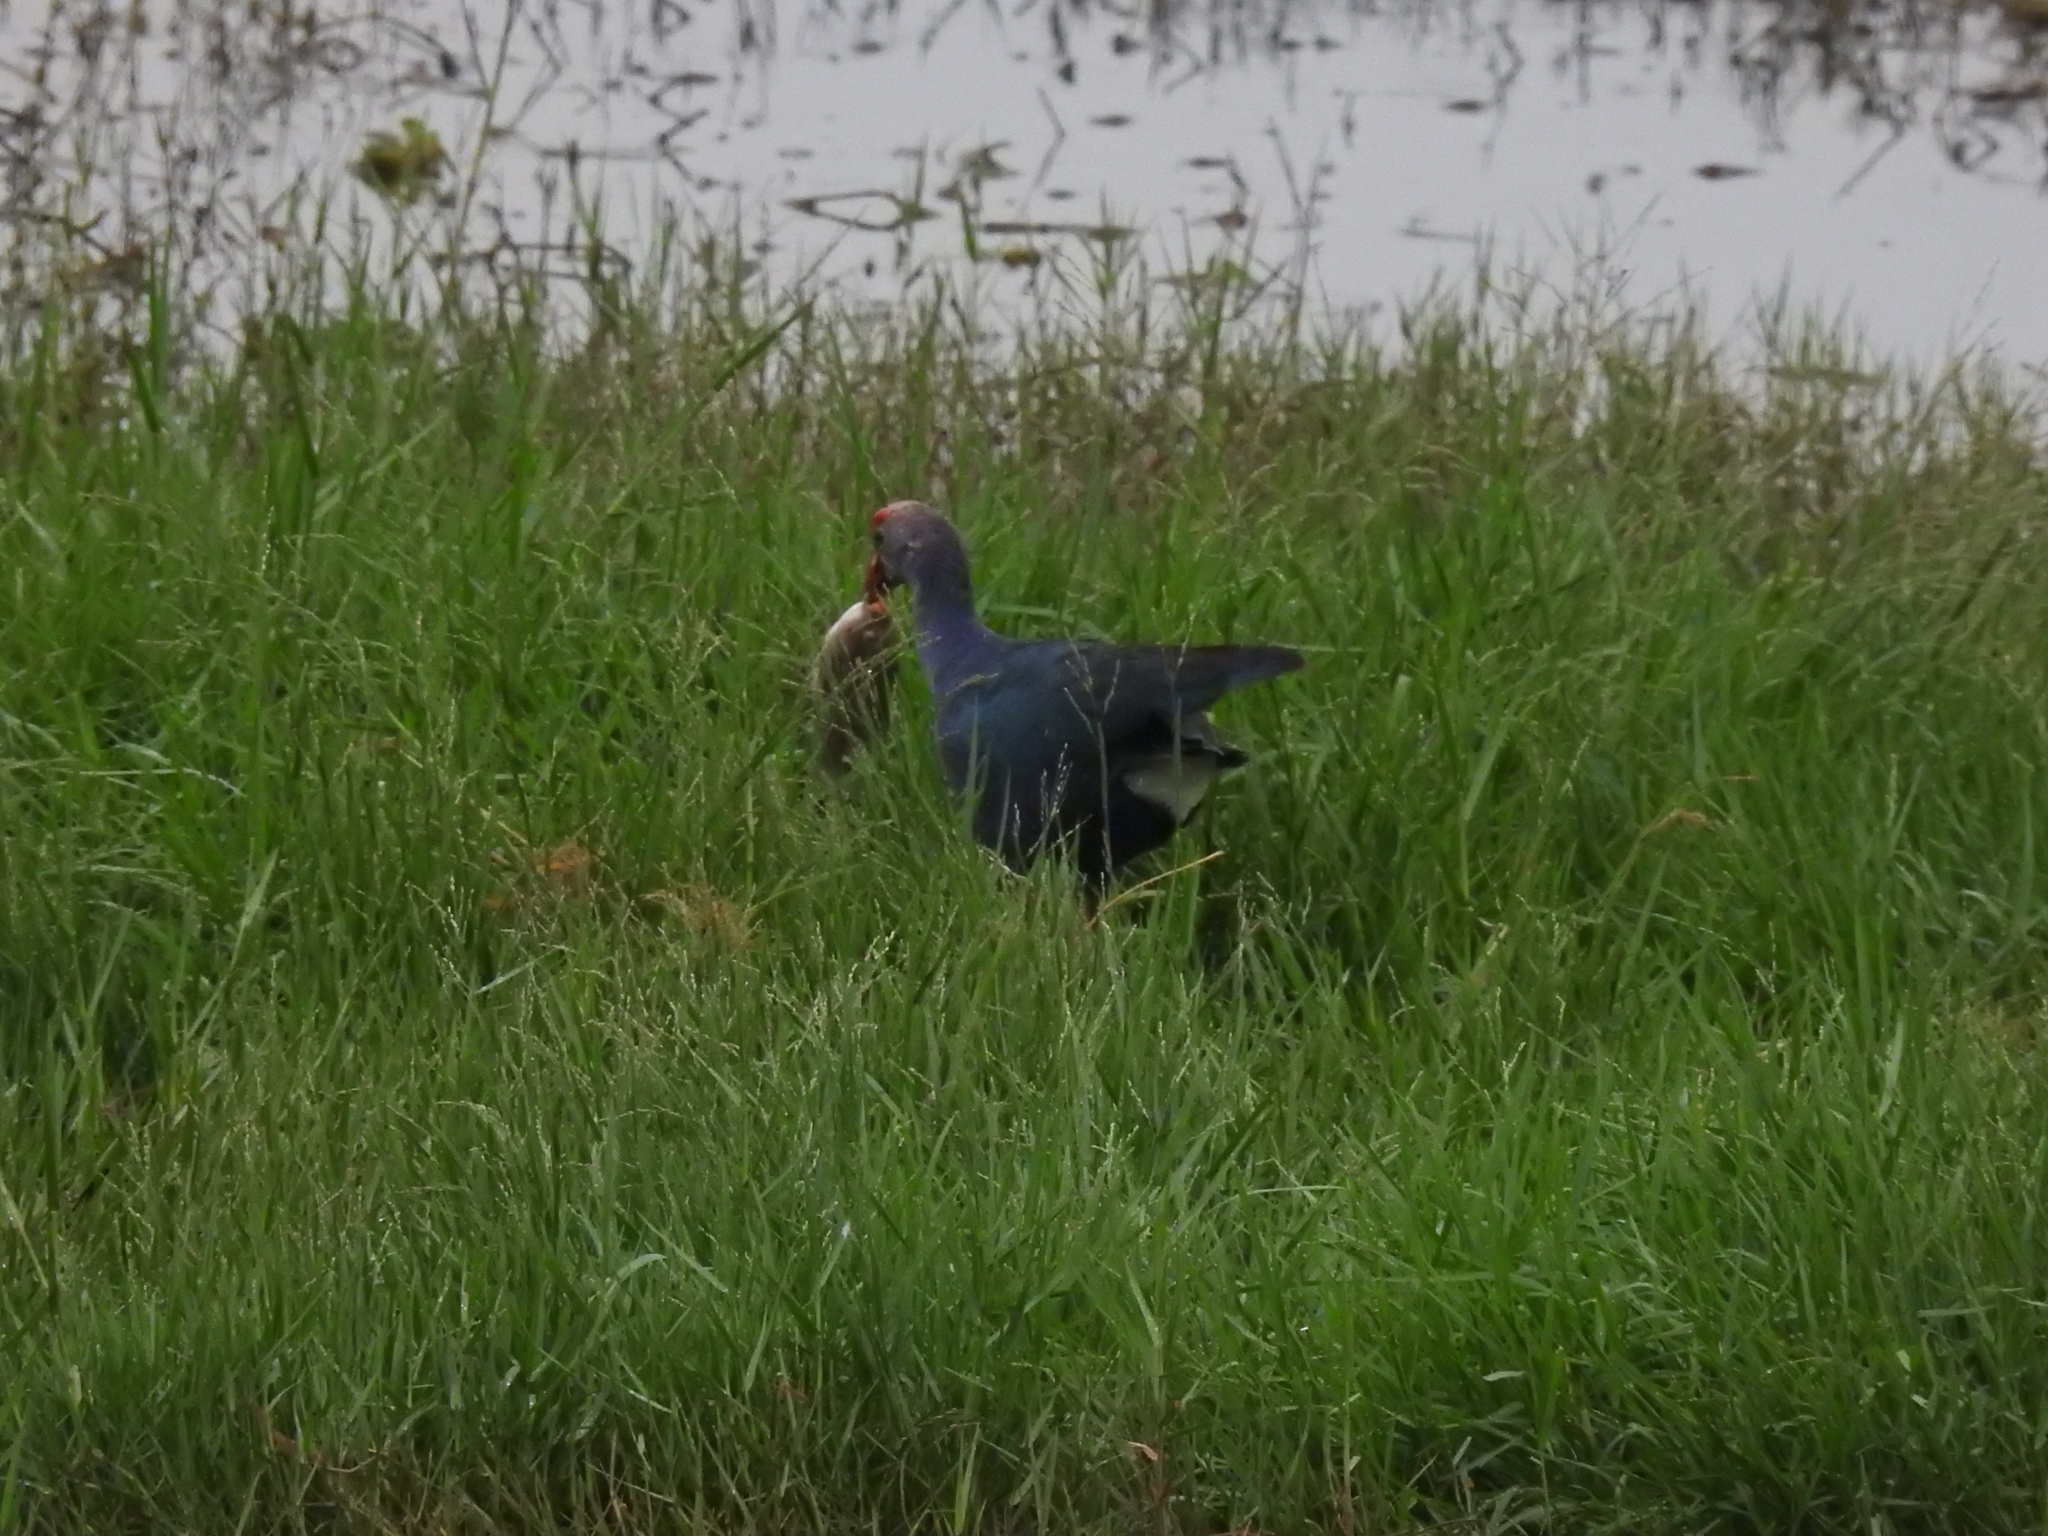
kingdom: Animalia
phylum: Chordata
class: Aves
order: Gruiformes
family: Rallidae
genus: Porphyrio
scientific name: Porphyrio porphyrio
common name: Purple swamphen
